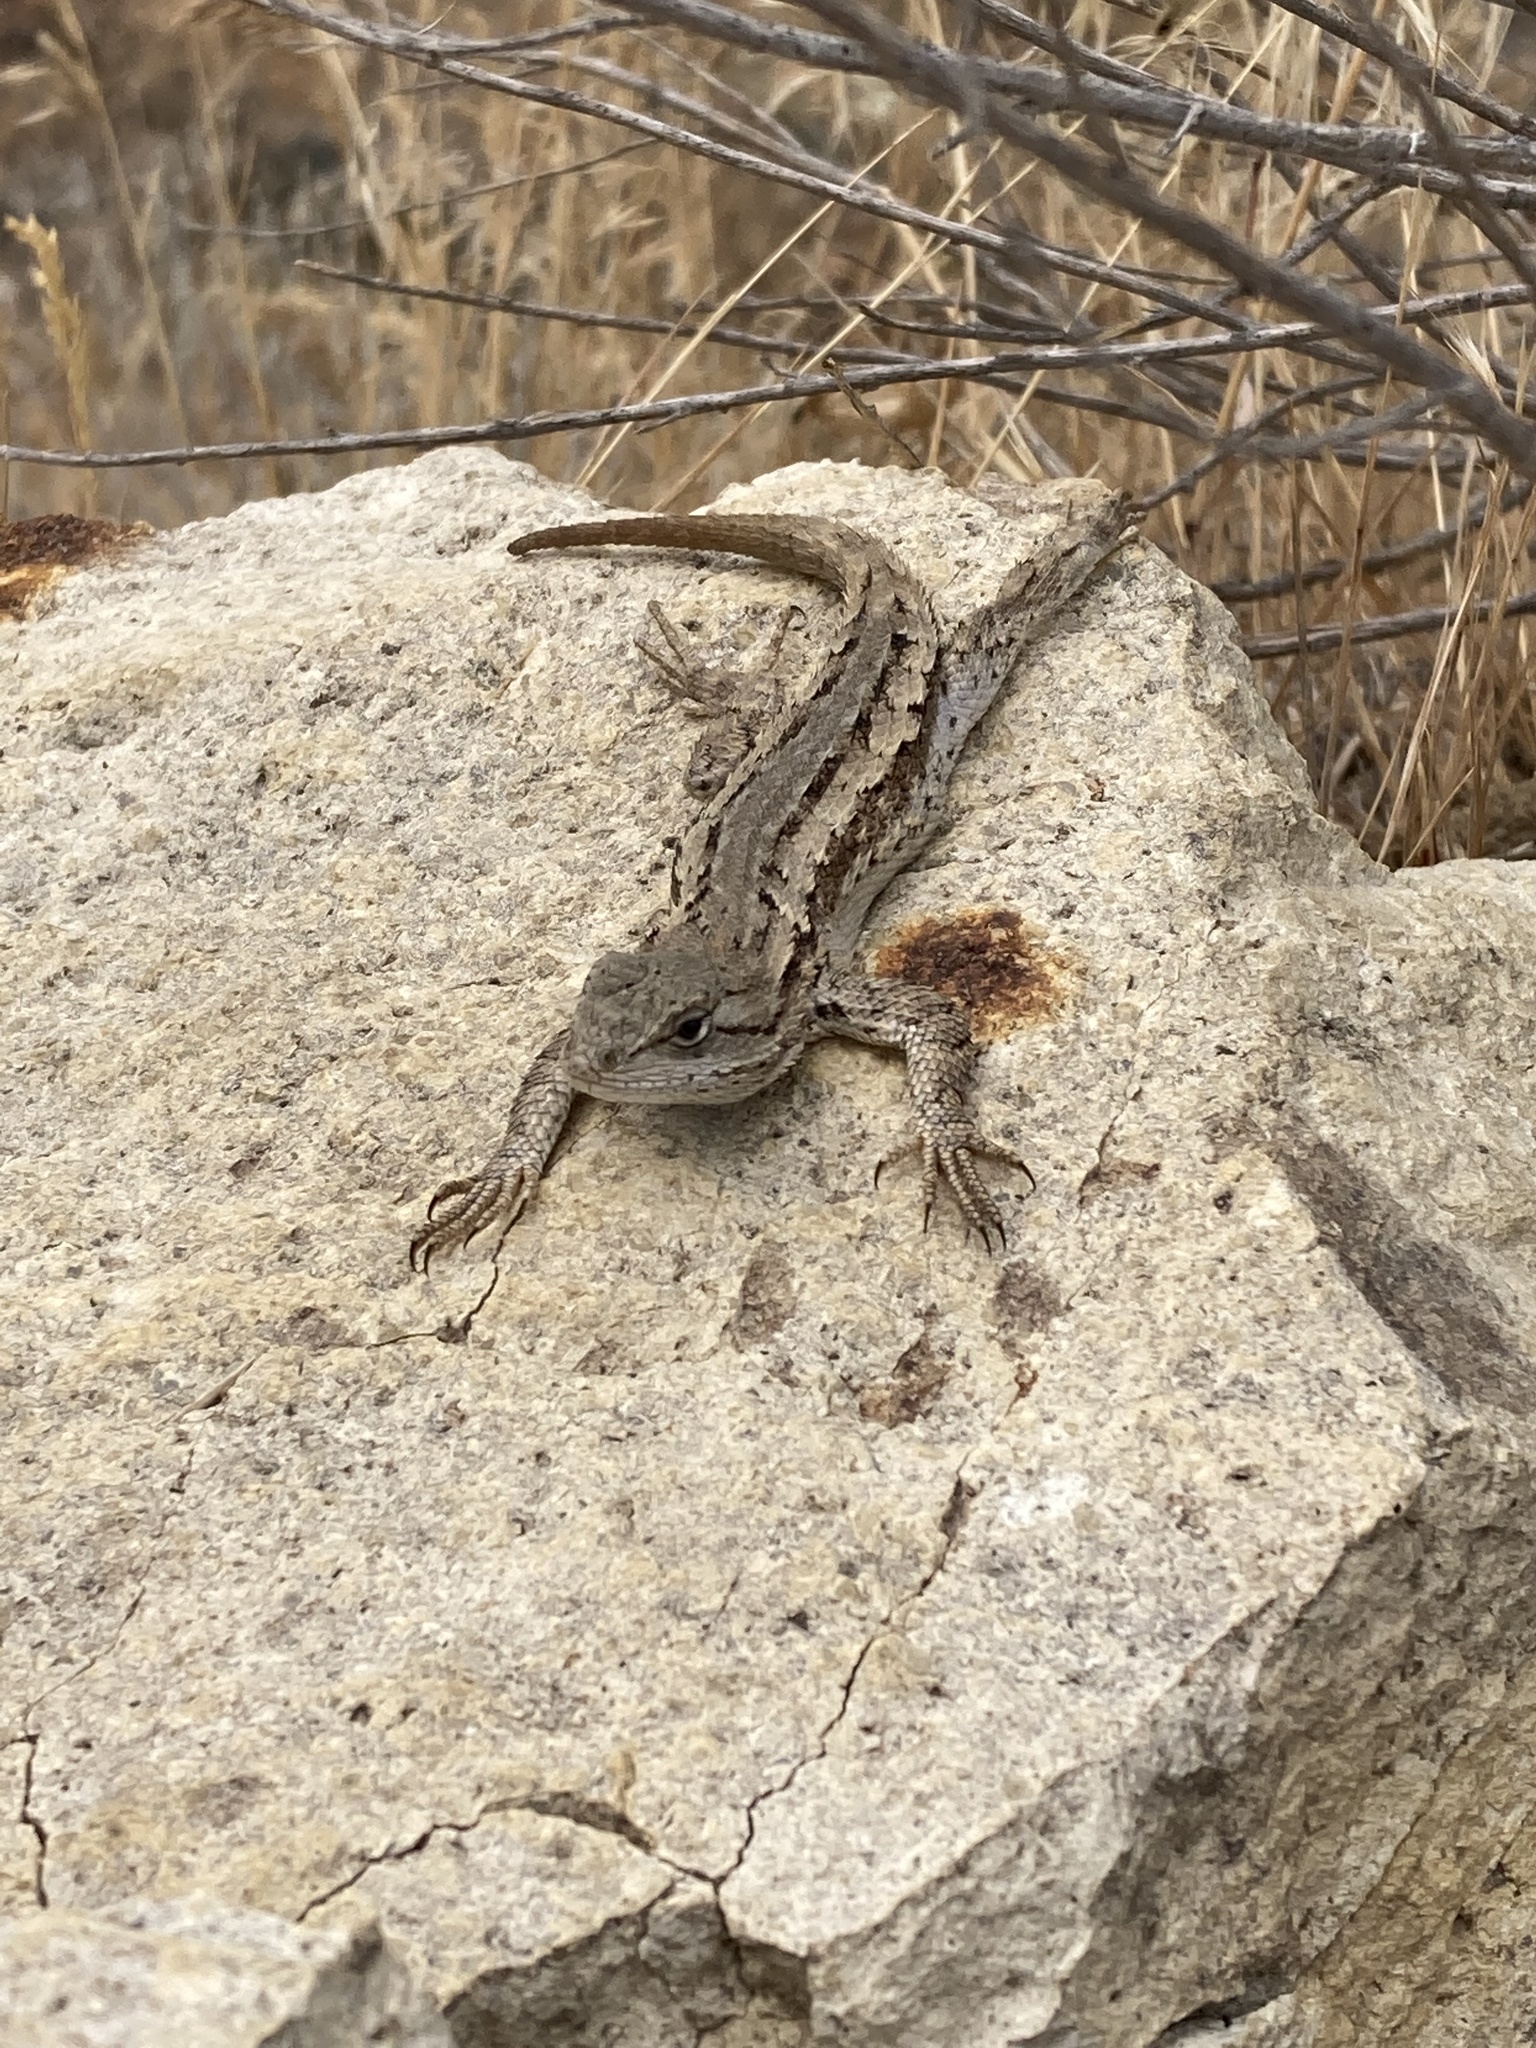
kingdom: Animalia
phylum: Chordata
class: Squamata
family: Phrynosomatidae
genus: Sceloporus
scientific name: Sceloporus occidentalis
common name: Western fence lizard
